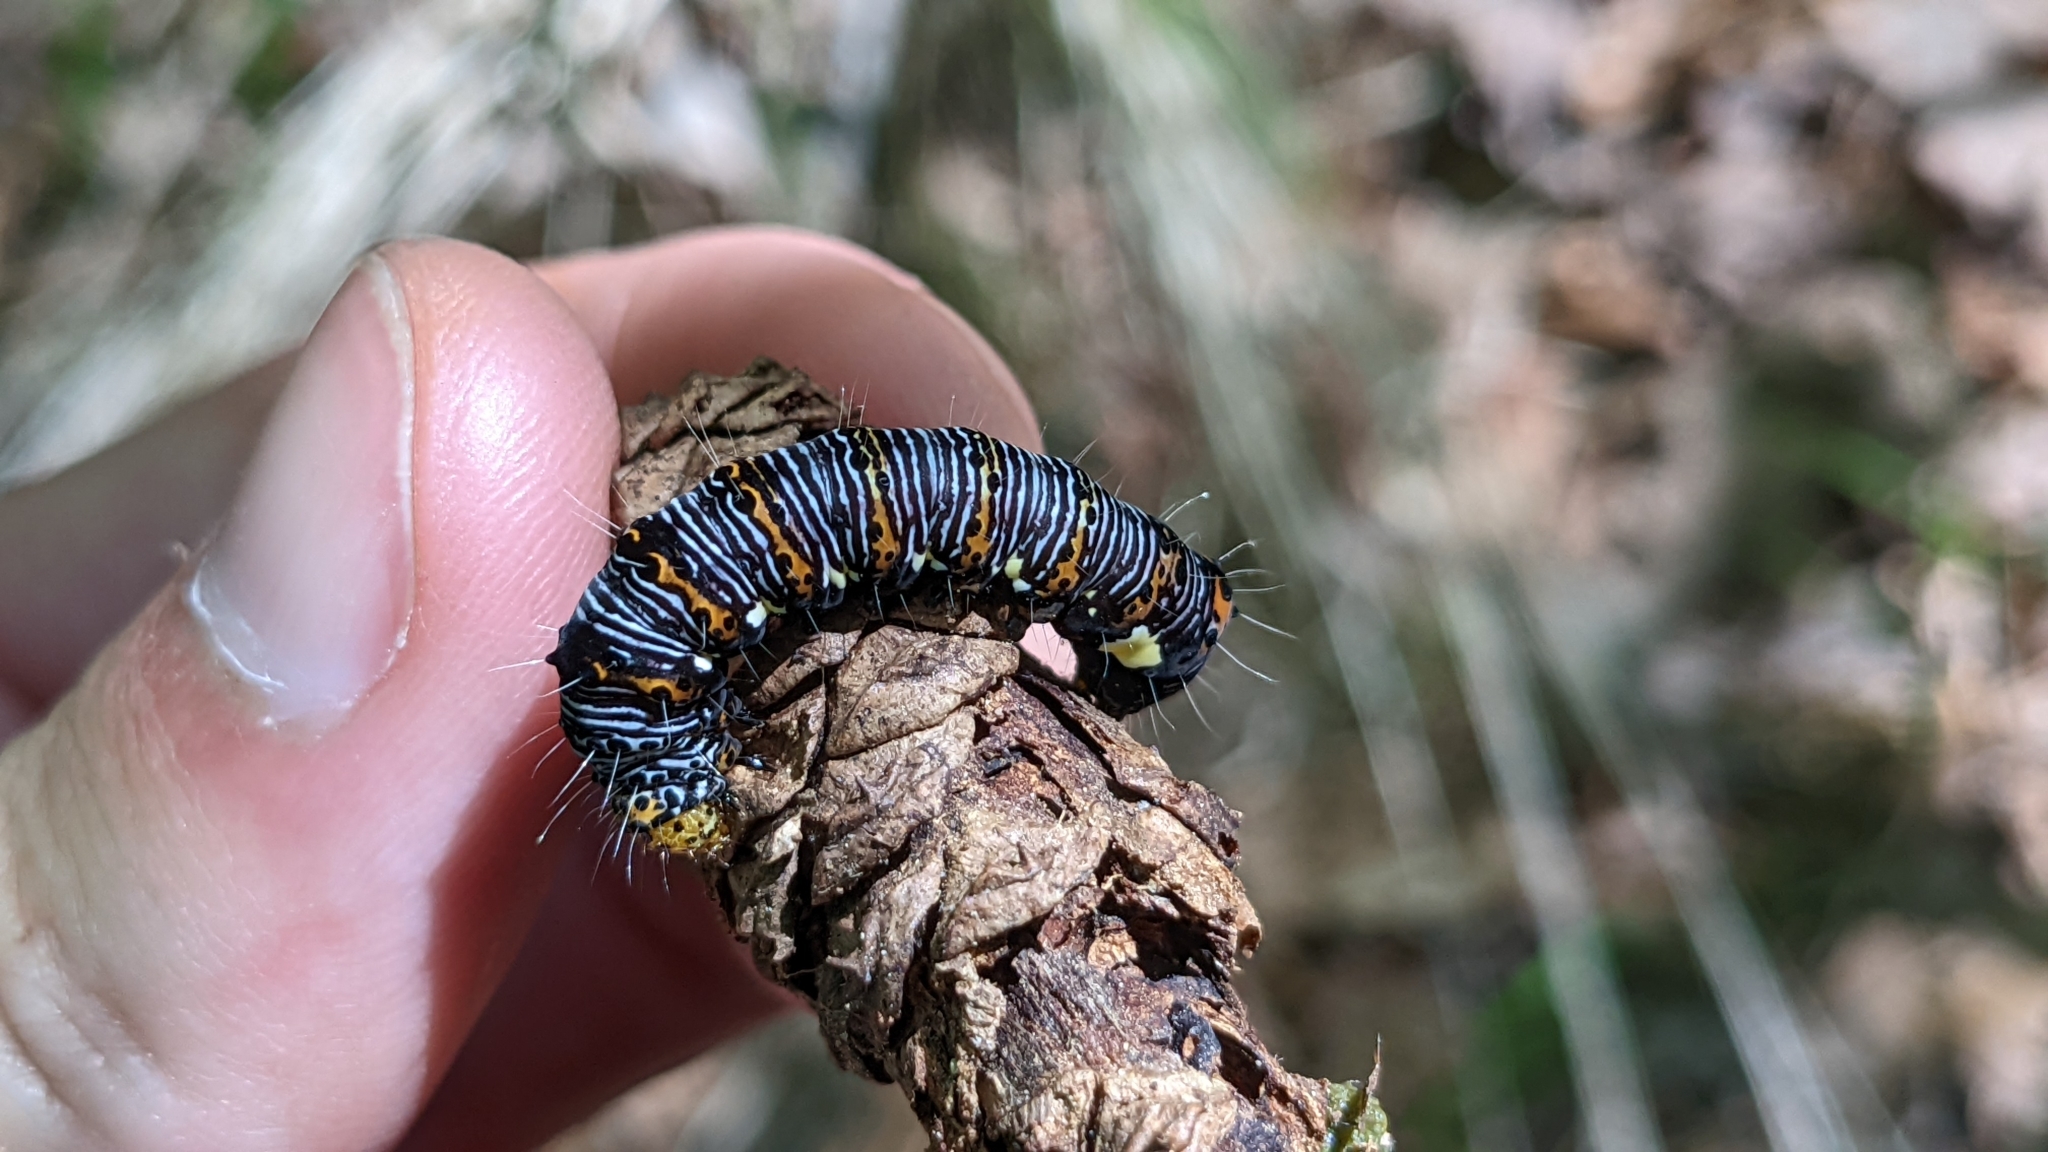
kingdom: Animalia
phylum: Arthropoda
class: Insecta
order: Lepidoptera
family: Noctuidae
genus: Alypia
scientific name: Alypia octomaculata
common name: Eight-spotted forester
